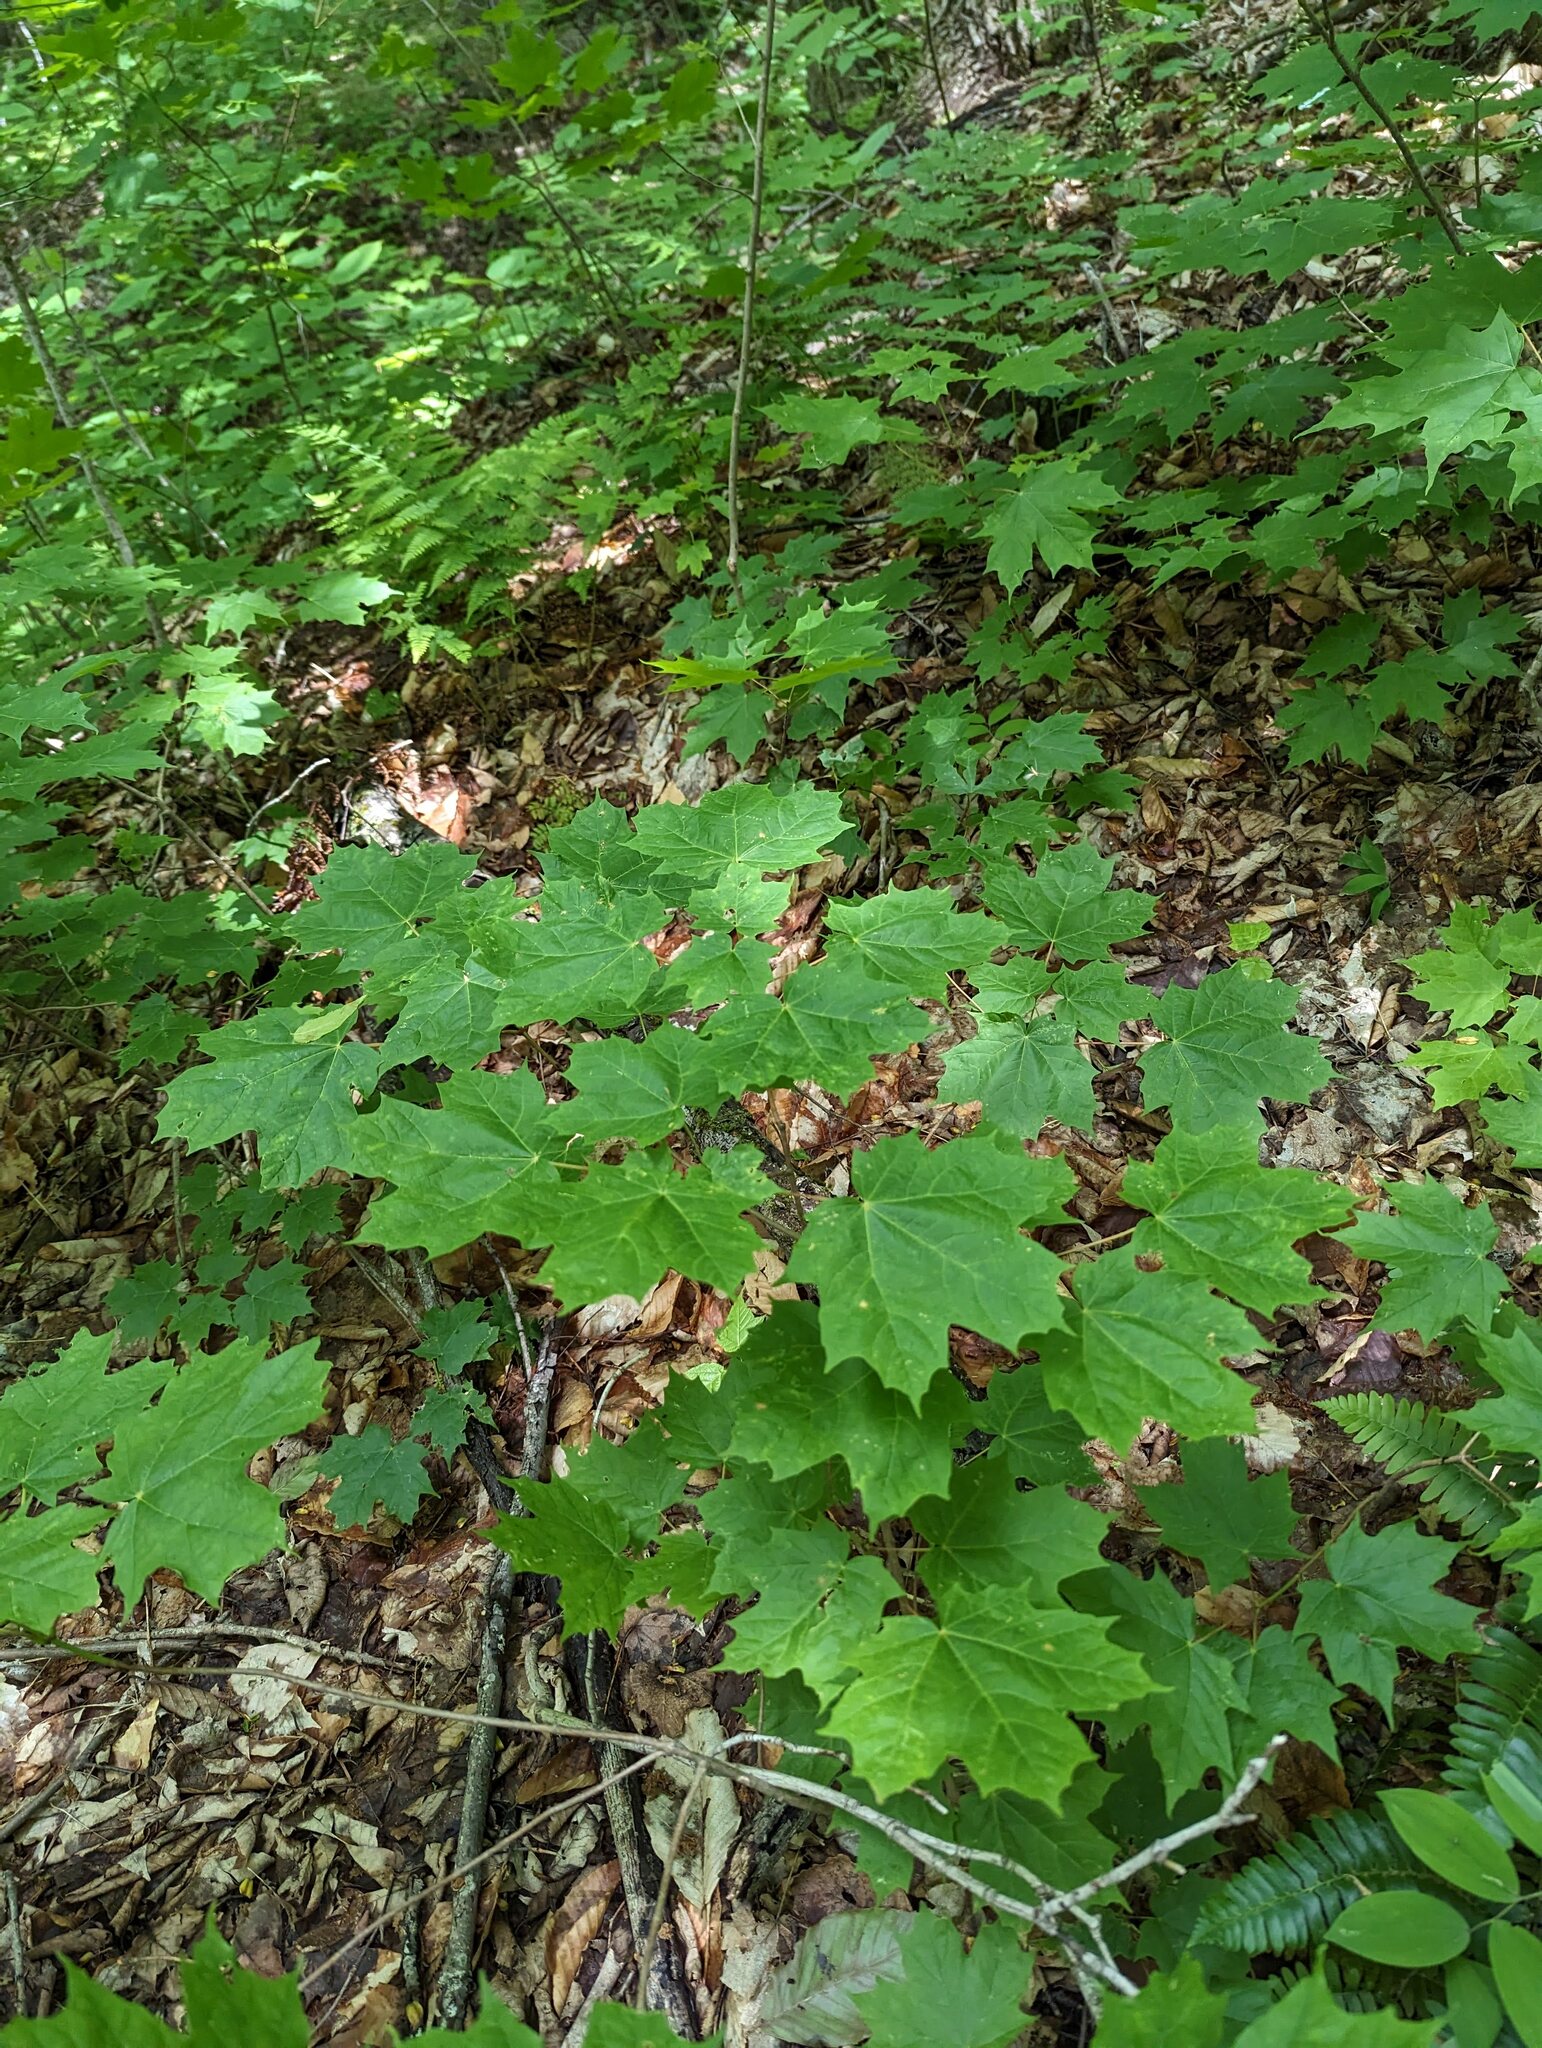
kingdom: Plantae
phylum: Tracheophyta
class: Magnoliopsida
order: Sapindales
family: Sapindaceae
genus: Acer
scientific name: Acer saccharum
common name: Sugar maple
